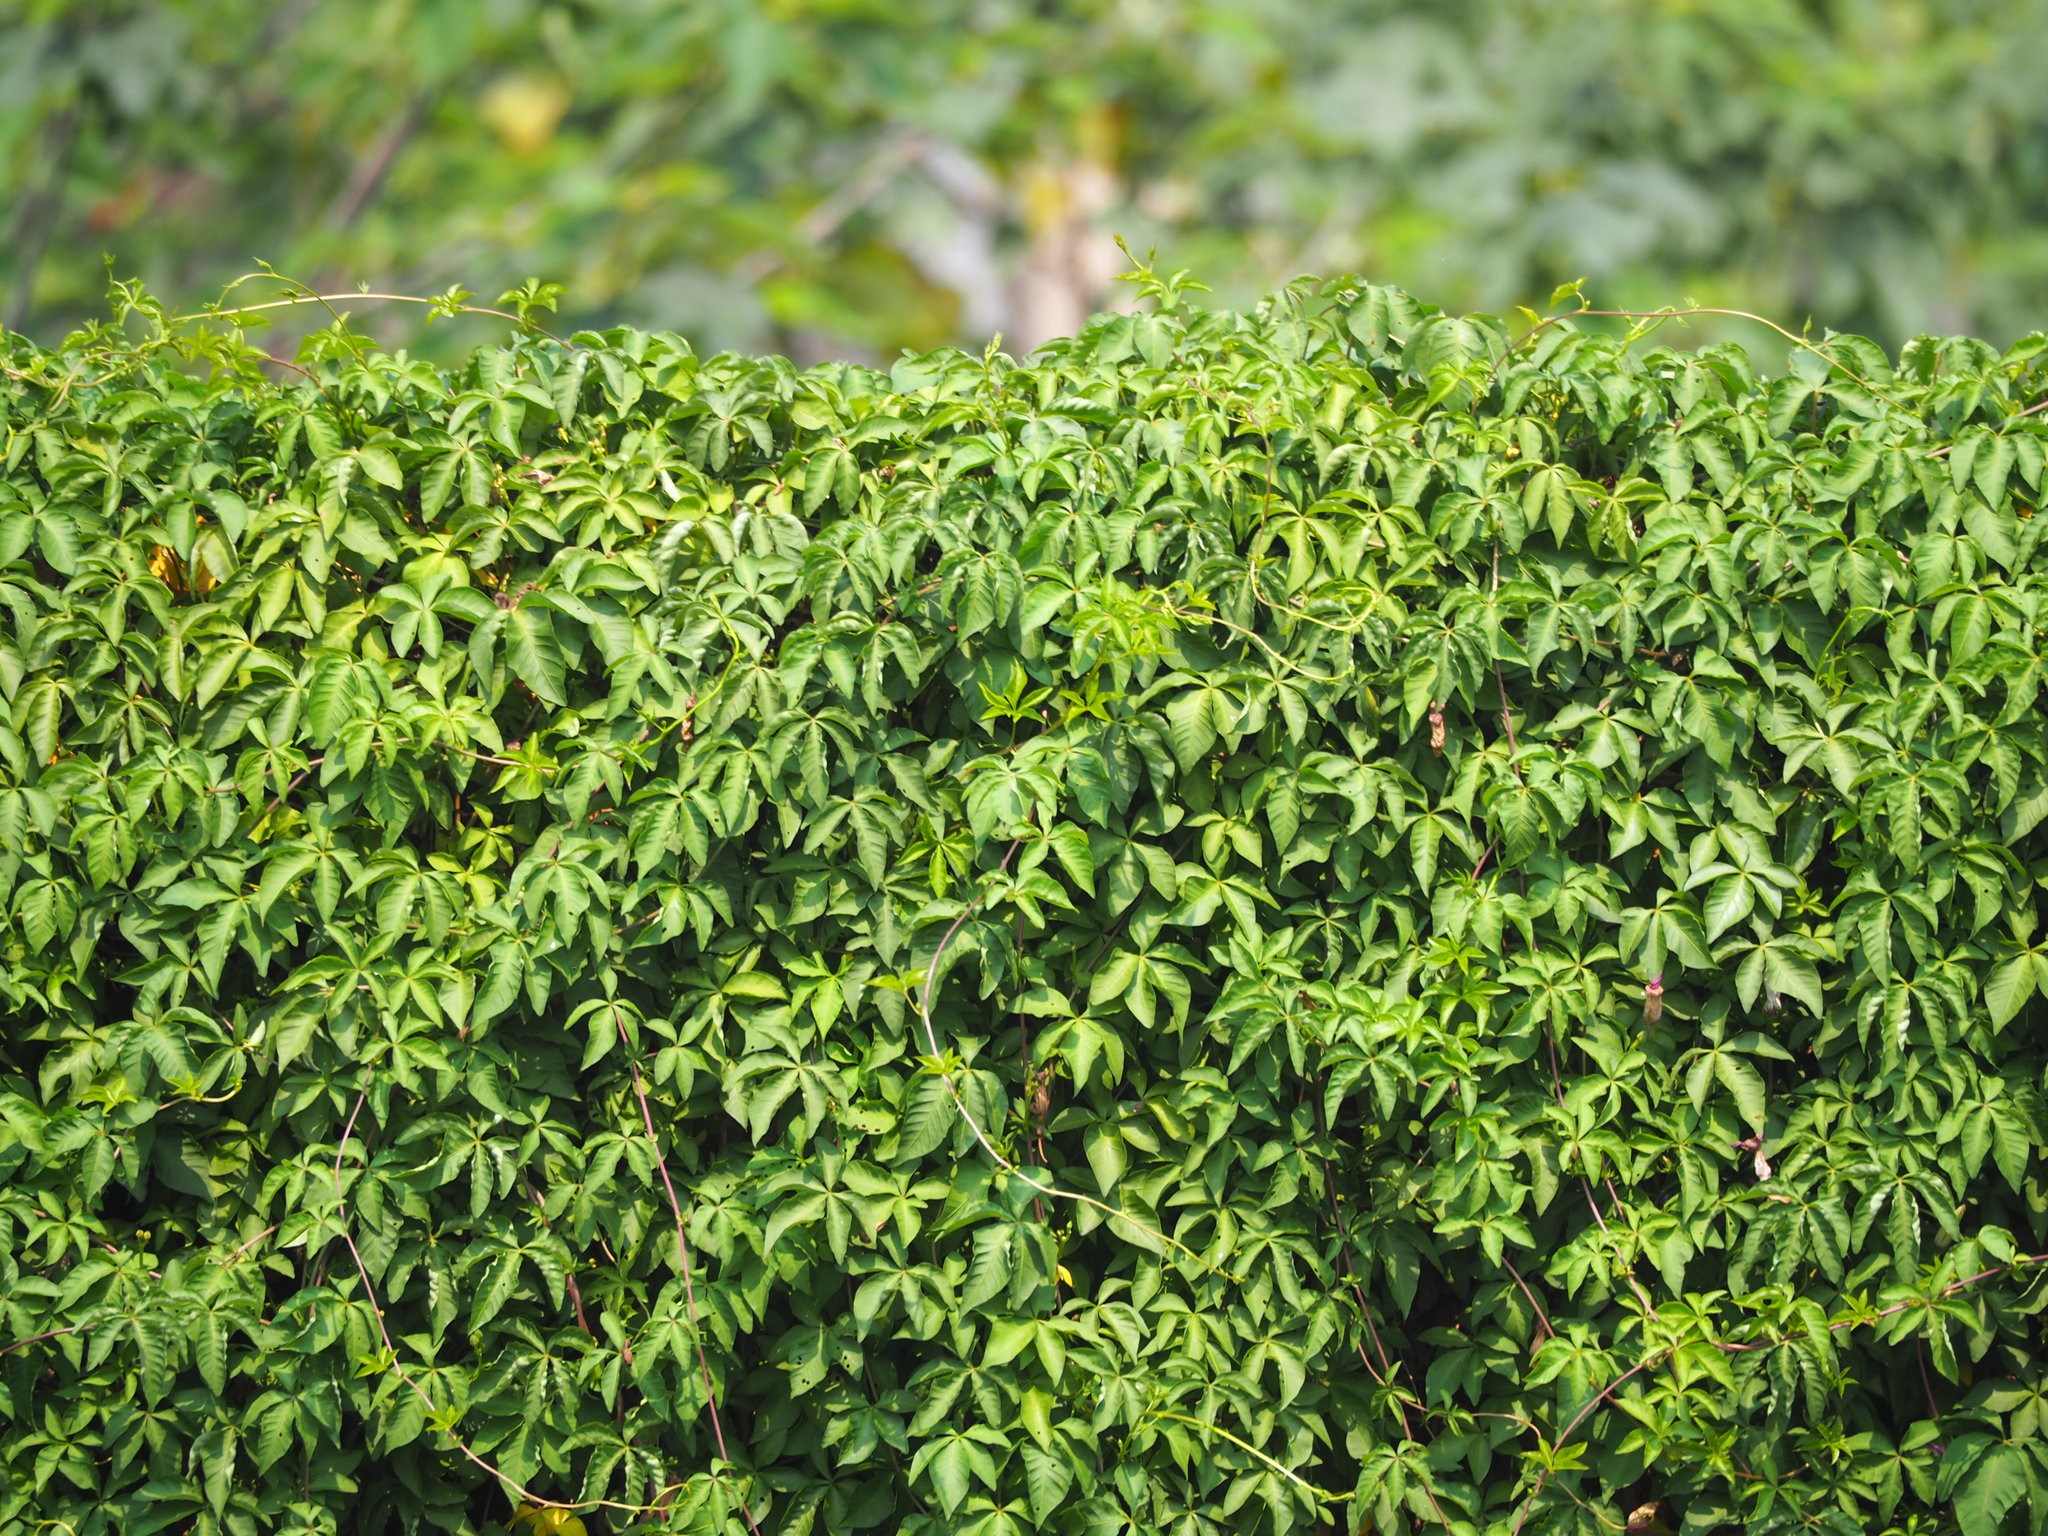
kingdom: Plantae
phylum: Tracheophyta
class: Magnoliopsida
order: Solanales
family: Convolvulaceae
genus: Ipomoea
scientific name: Ipomoea cairica
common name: Mile a minute vine
